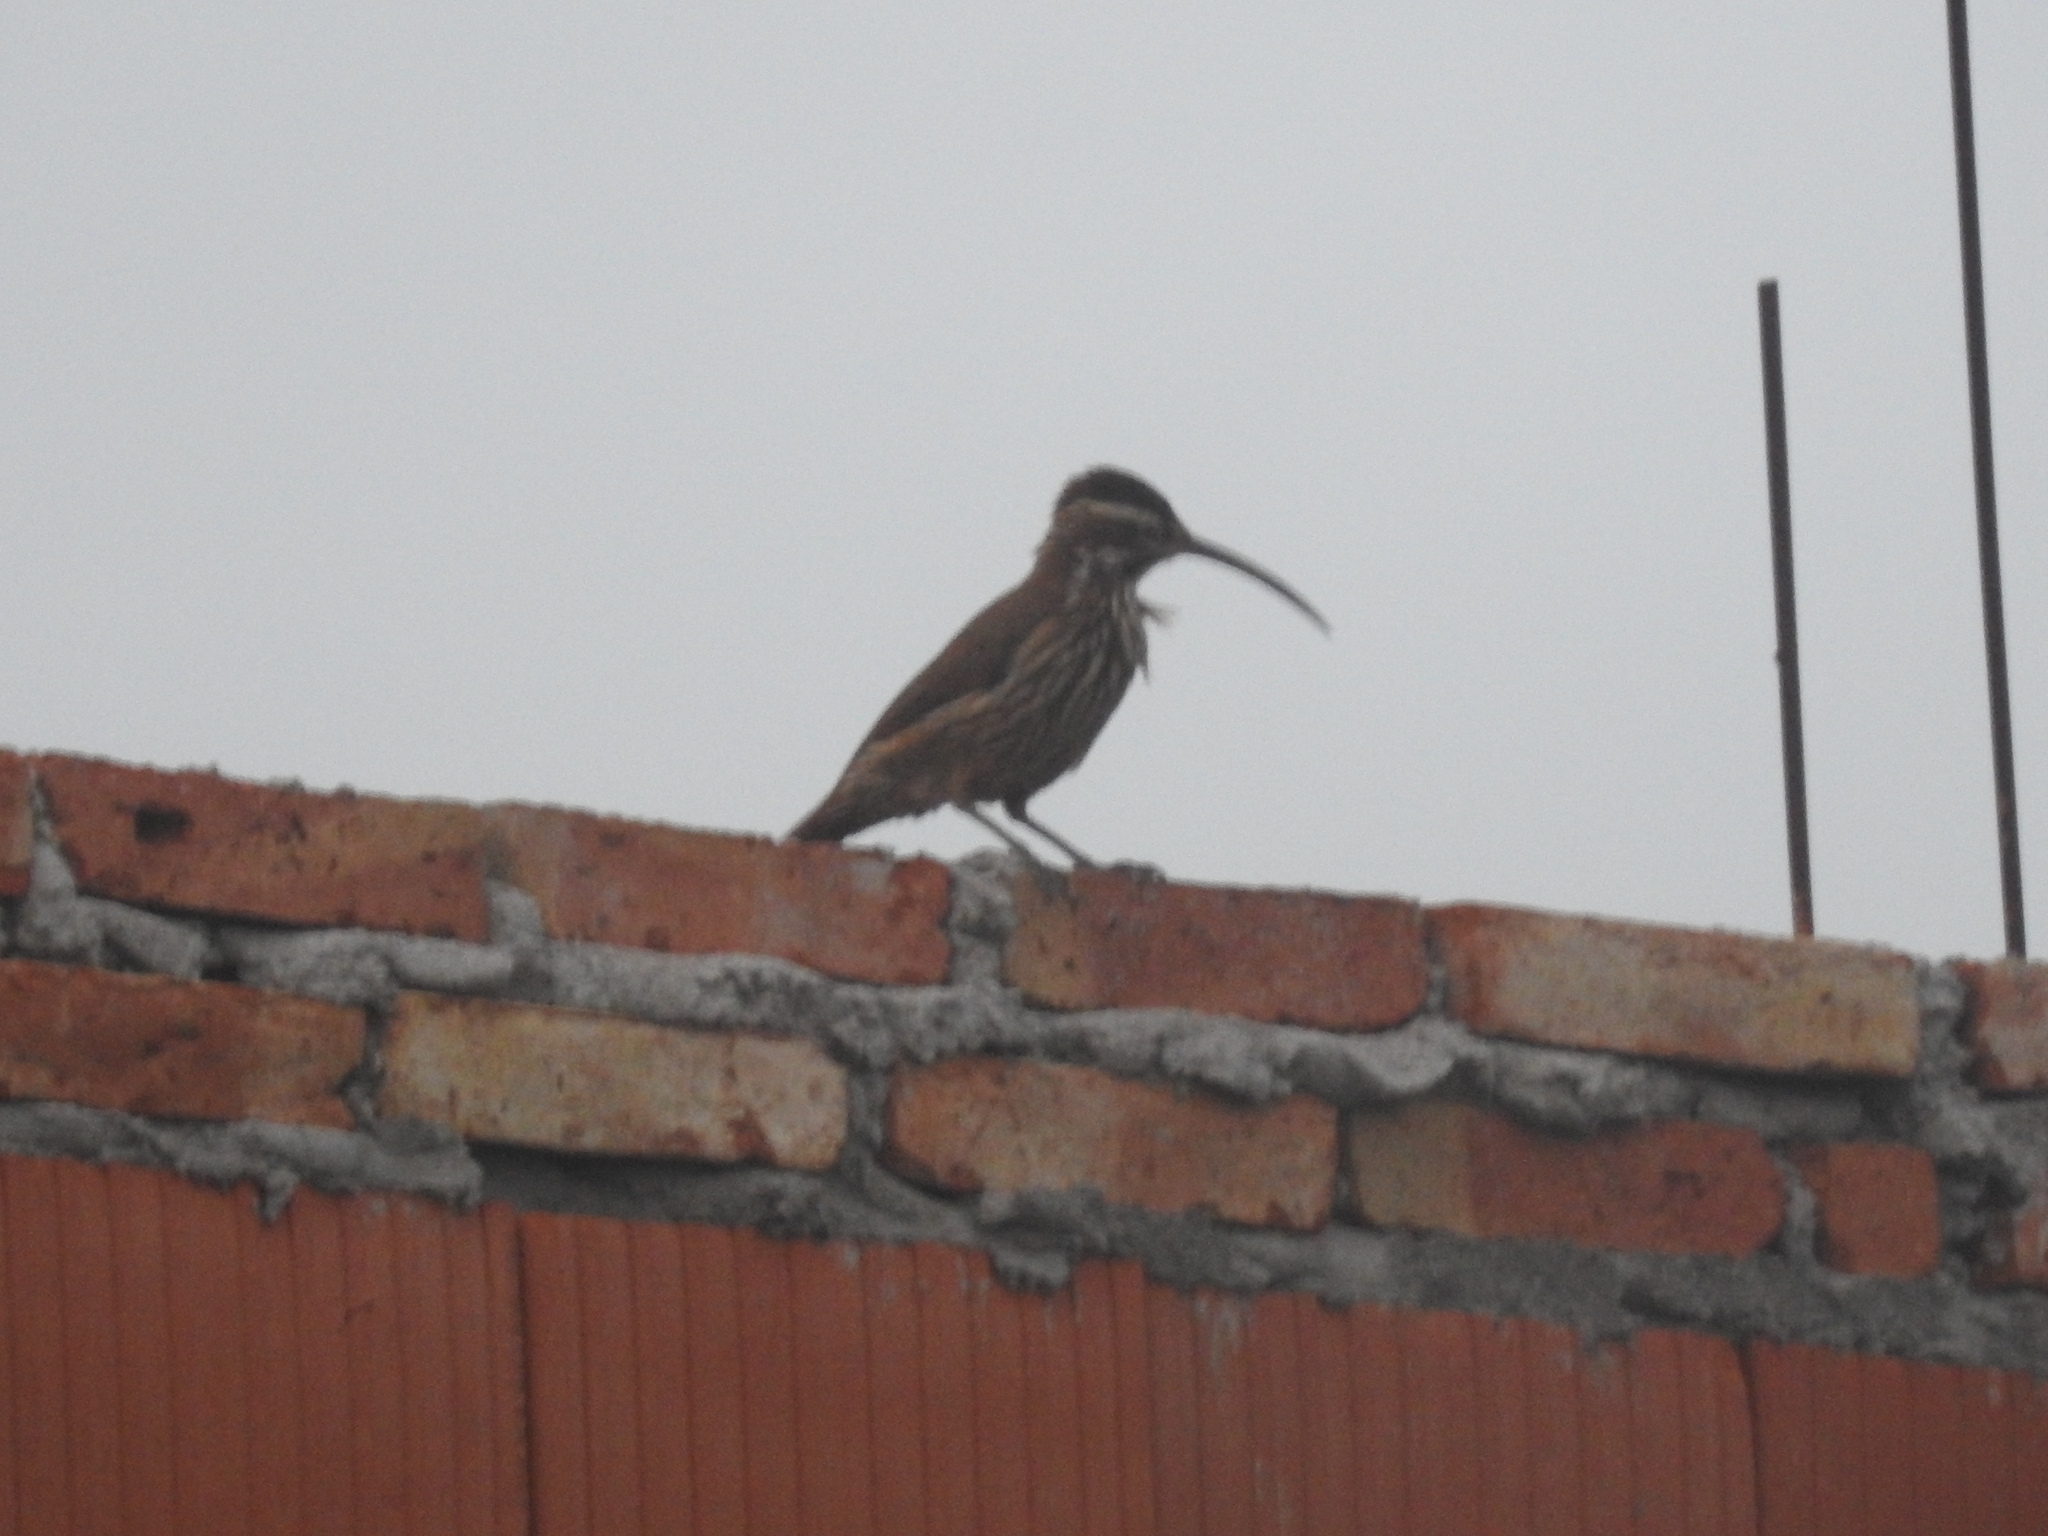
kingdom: Animalia
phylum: Chordata
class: Aves
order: Passeriformes
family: Furnariidae
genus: Drymornis
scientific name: Drymornis bridgesii
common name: Scimitar-billed woodcreeper
